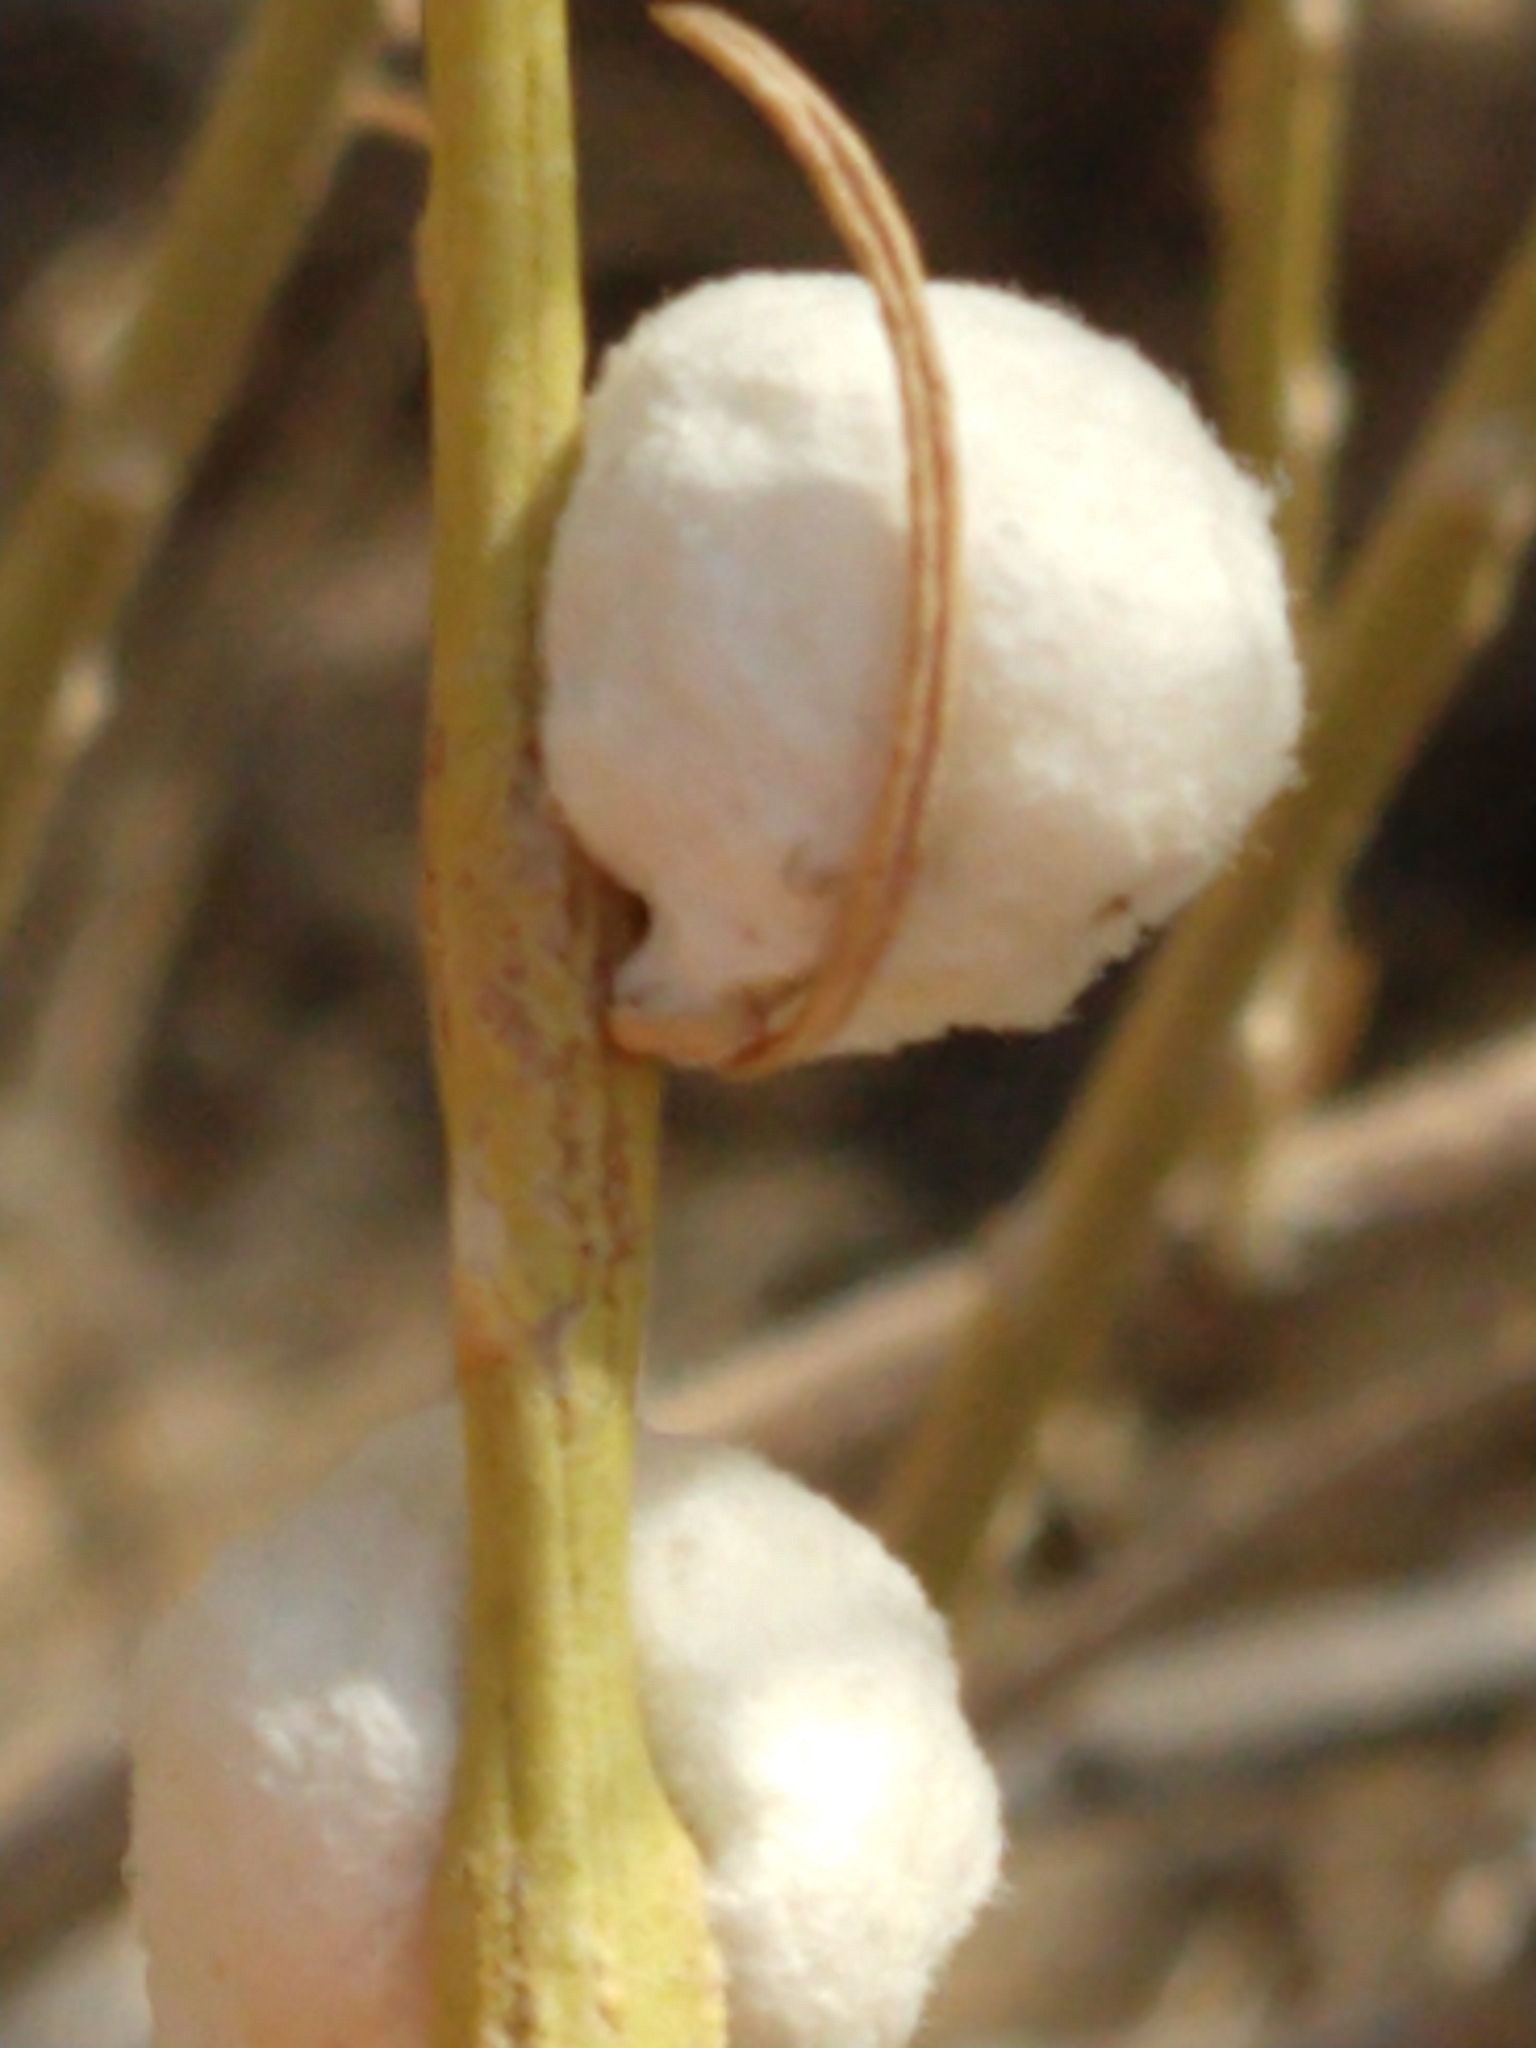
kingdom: Animalia
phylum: Arthropoda
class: Insecta
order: Diptera
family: Tephritidae
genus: Aciurina
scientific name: Aciurina bigeloviae
